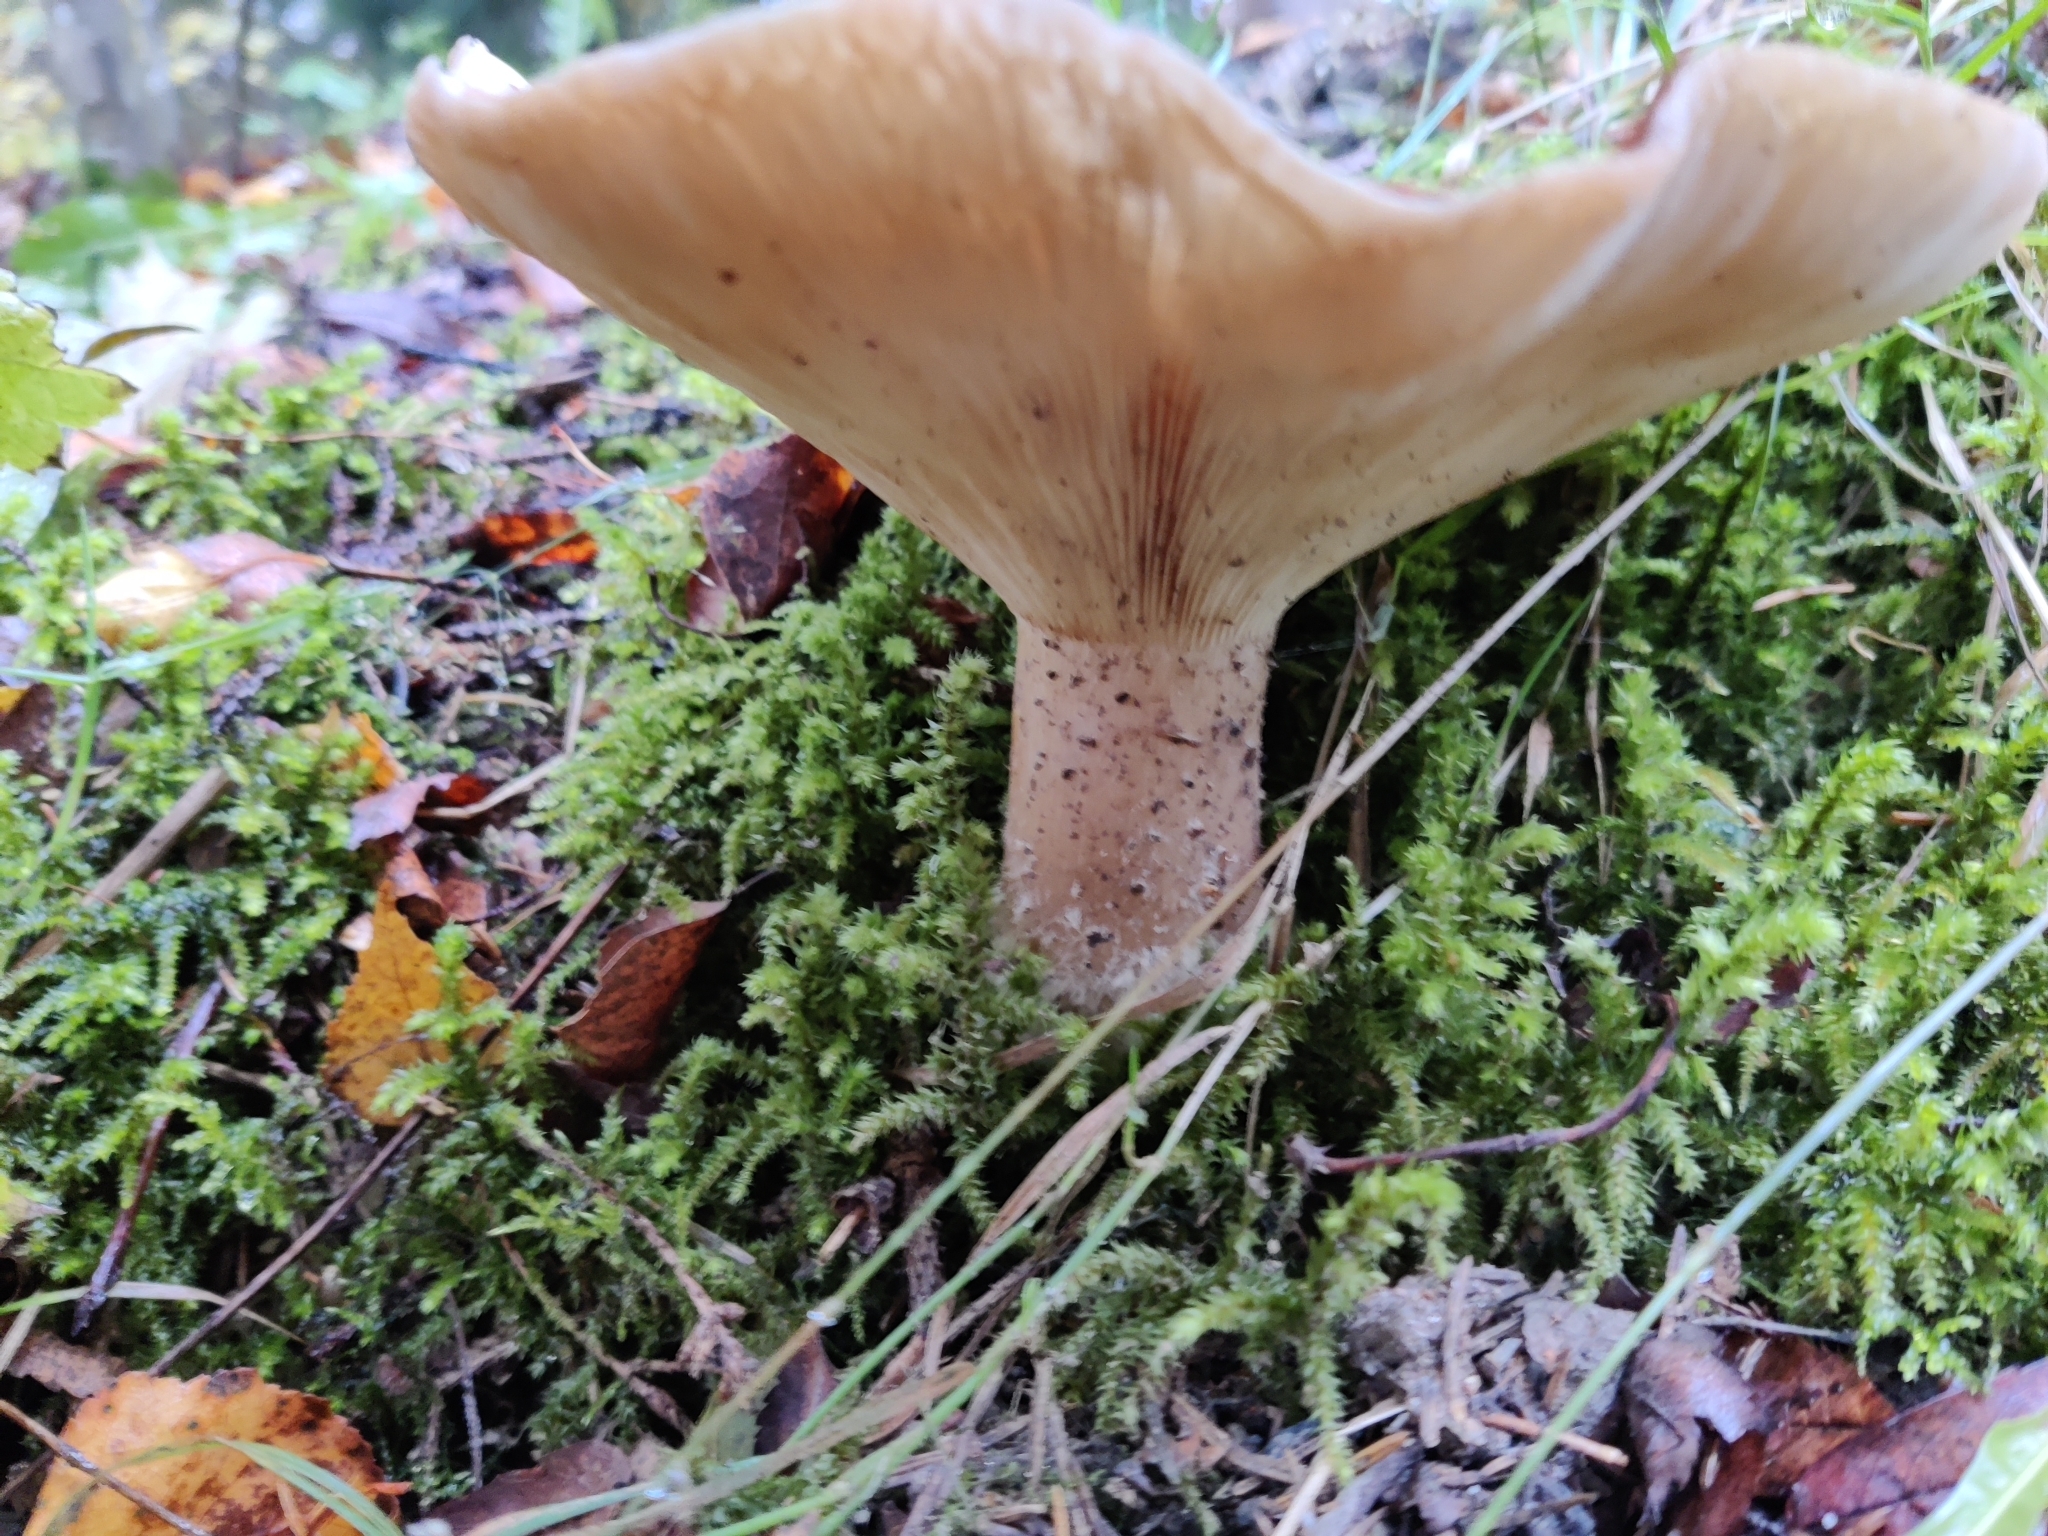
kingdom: Fungi
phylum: Basidiomycota
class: Agaricomycetes
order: Agaricales
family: Tricholomataceae
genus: Clitocybe
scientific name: Clitocybe nebularis
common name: Clouded agaric
